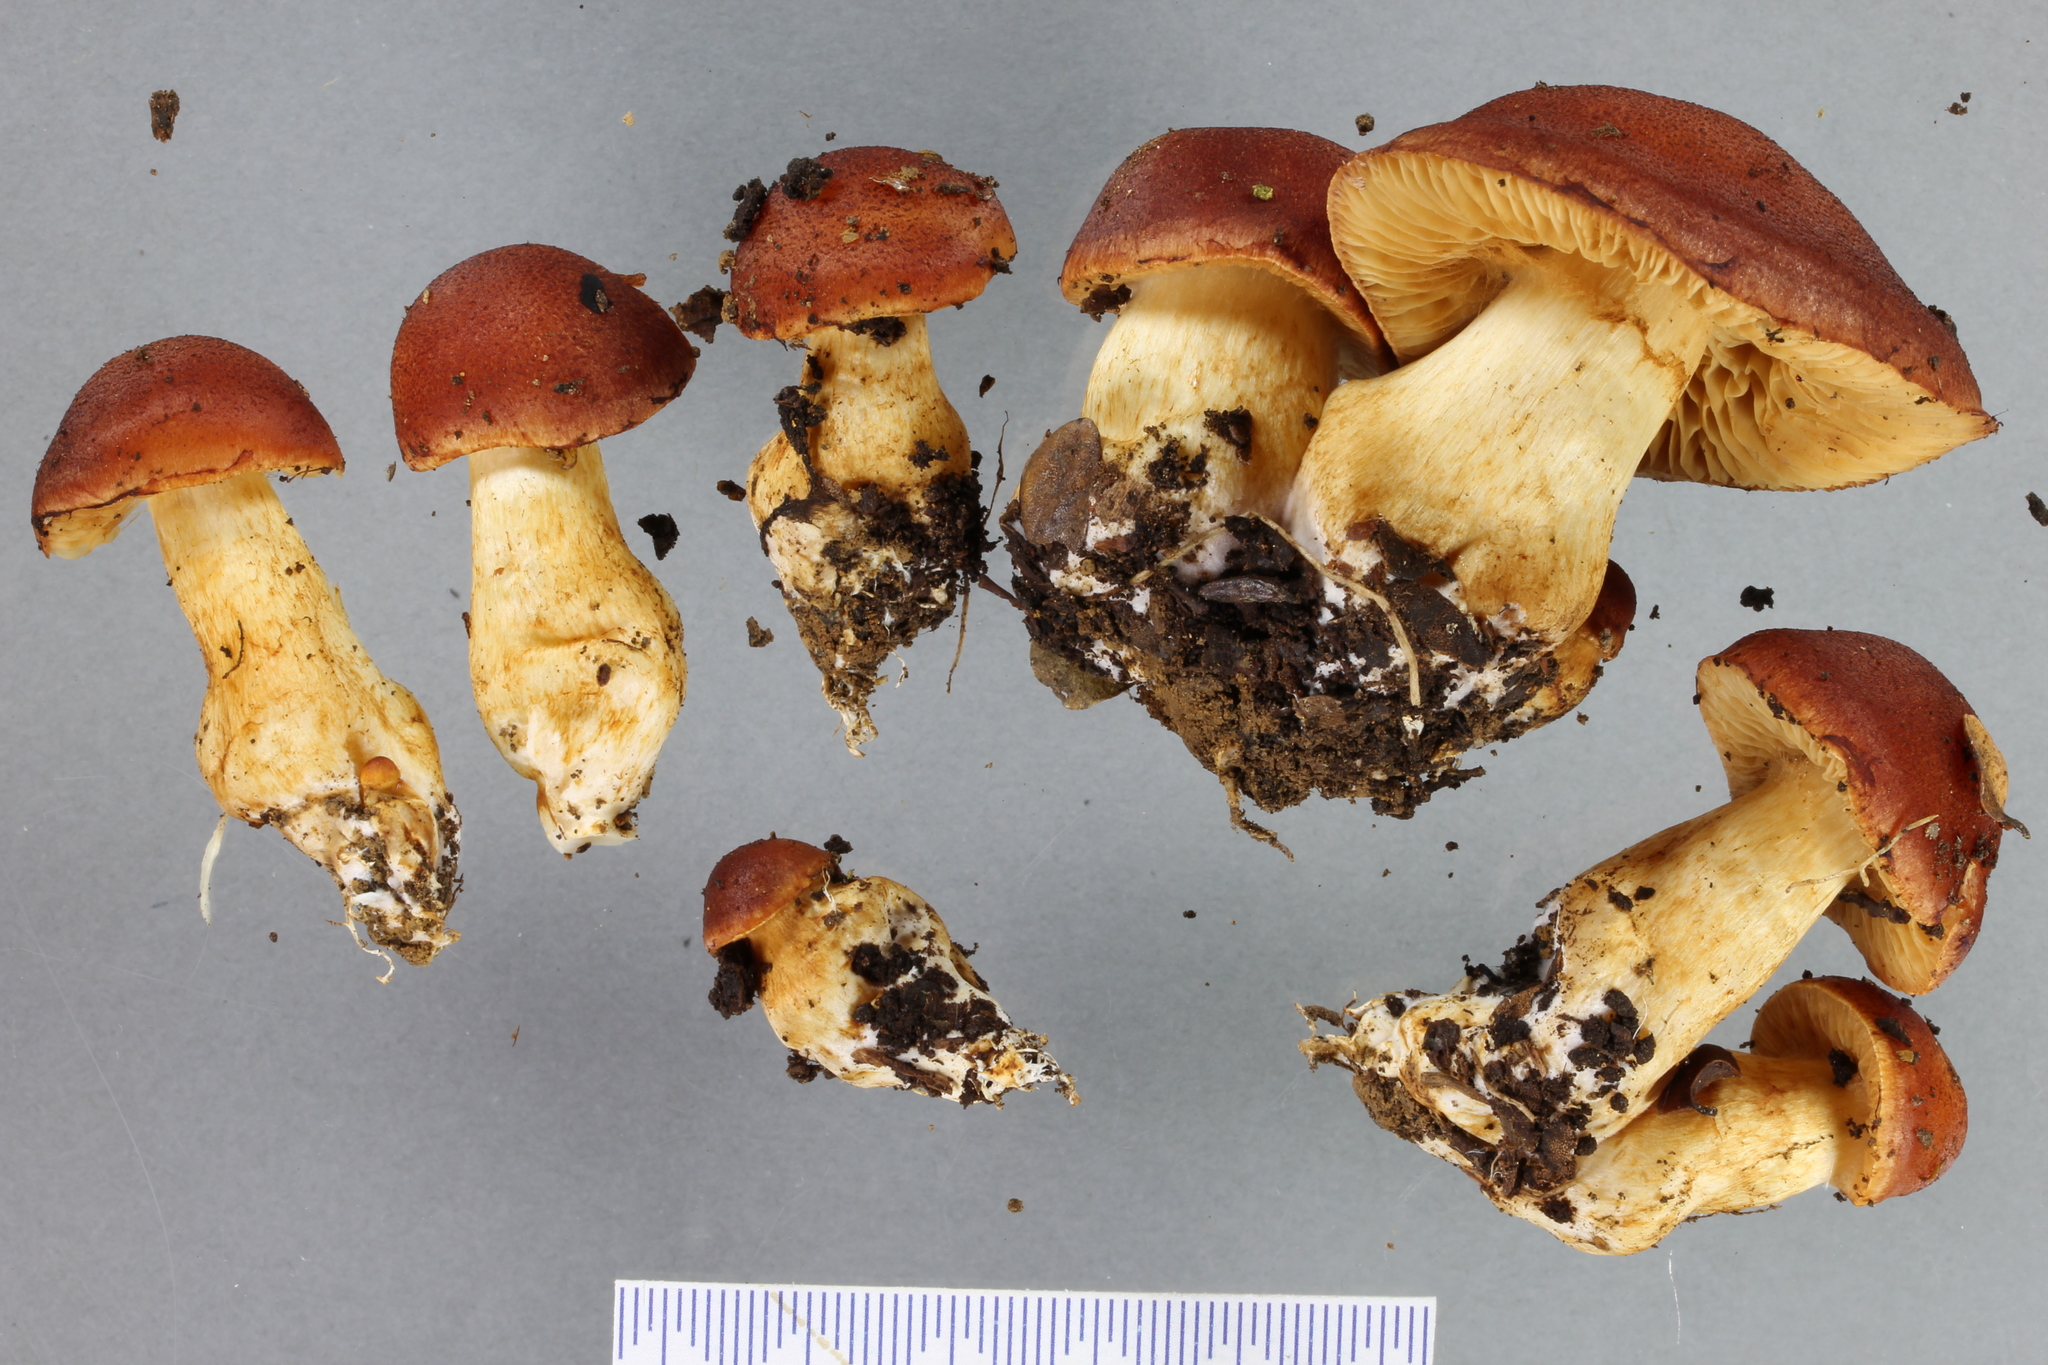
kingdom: Fungi
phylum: Basidiomycota
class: Agaricomycetes
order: Agaricales
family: Cortinariaceae
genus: Aureonarius
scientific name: Aureonarius rubrodactylus
